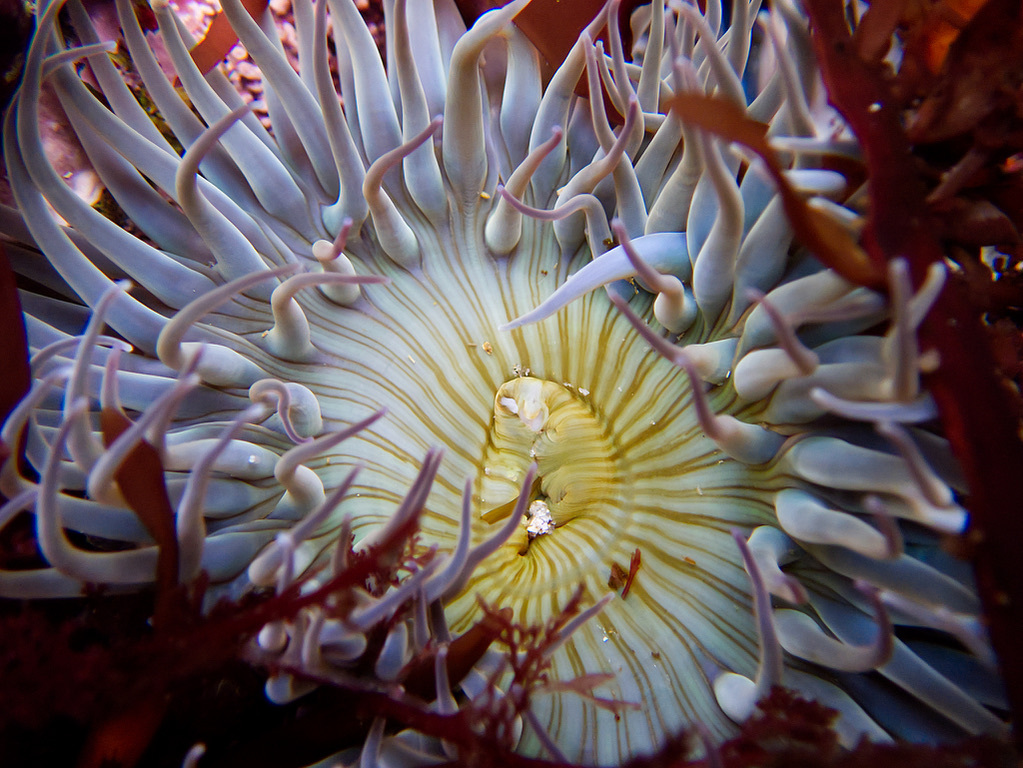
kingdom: Animalia
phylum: Cnidaria
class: Anthozoa
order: Actiniaria
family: Actiniidae
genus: Anthopleura
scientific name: Anthopleura sola
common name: Sun anemone
